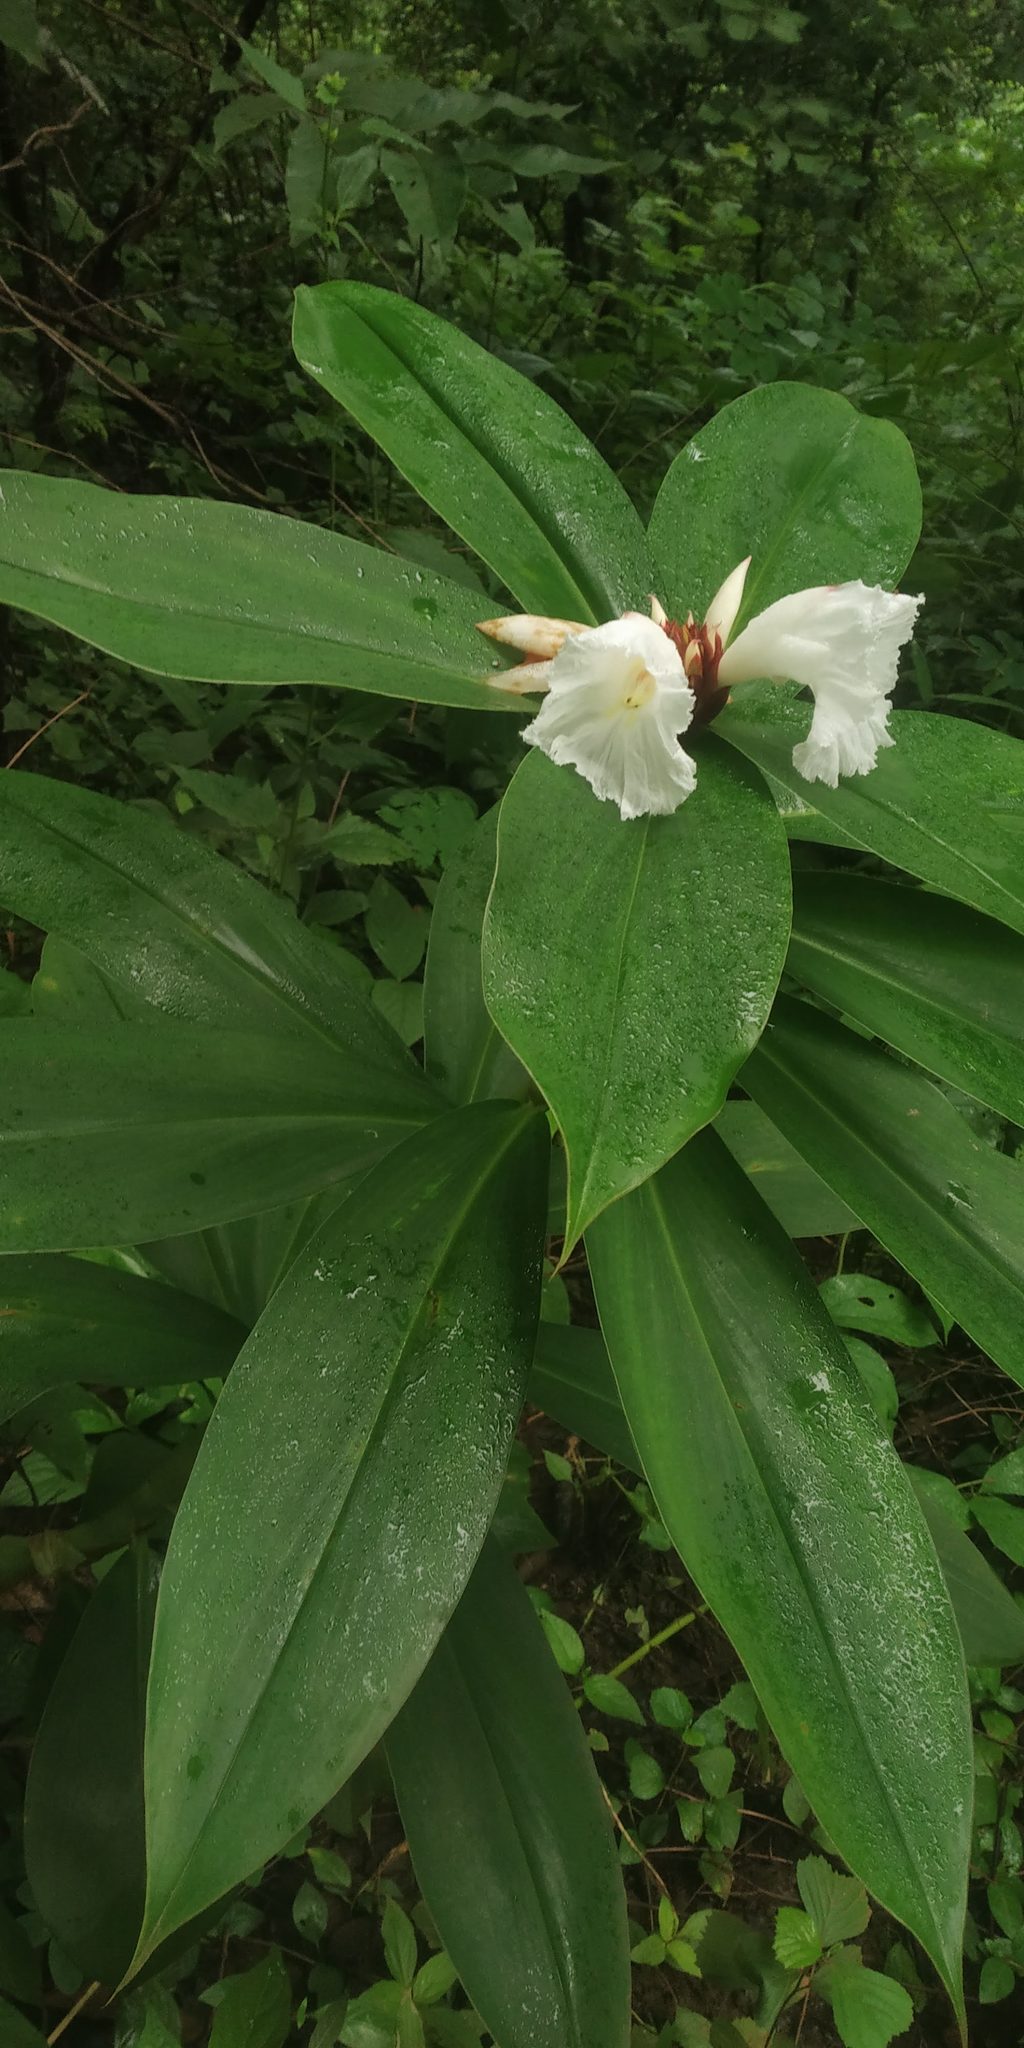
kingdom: Plantae
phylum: Tracheophyta
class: Liliopsida
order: Zingiberales
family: Costaceae
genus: Hellenia
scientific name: Hellenia speciosa
